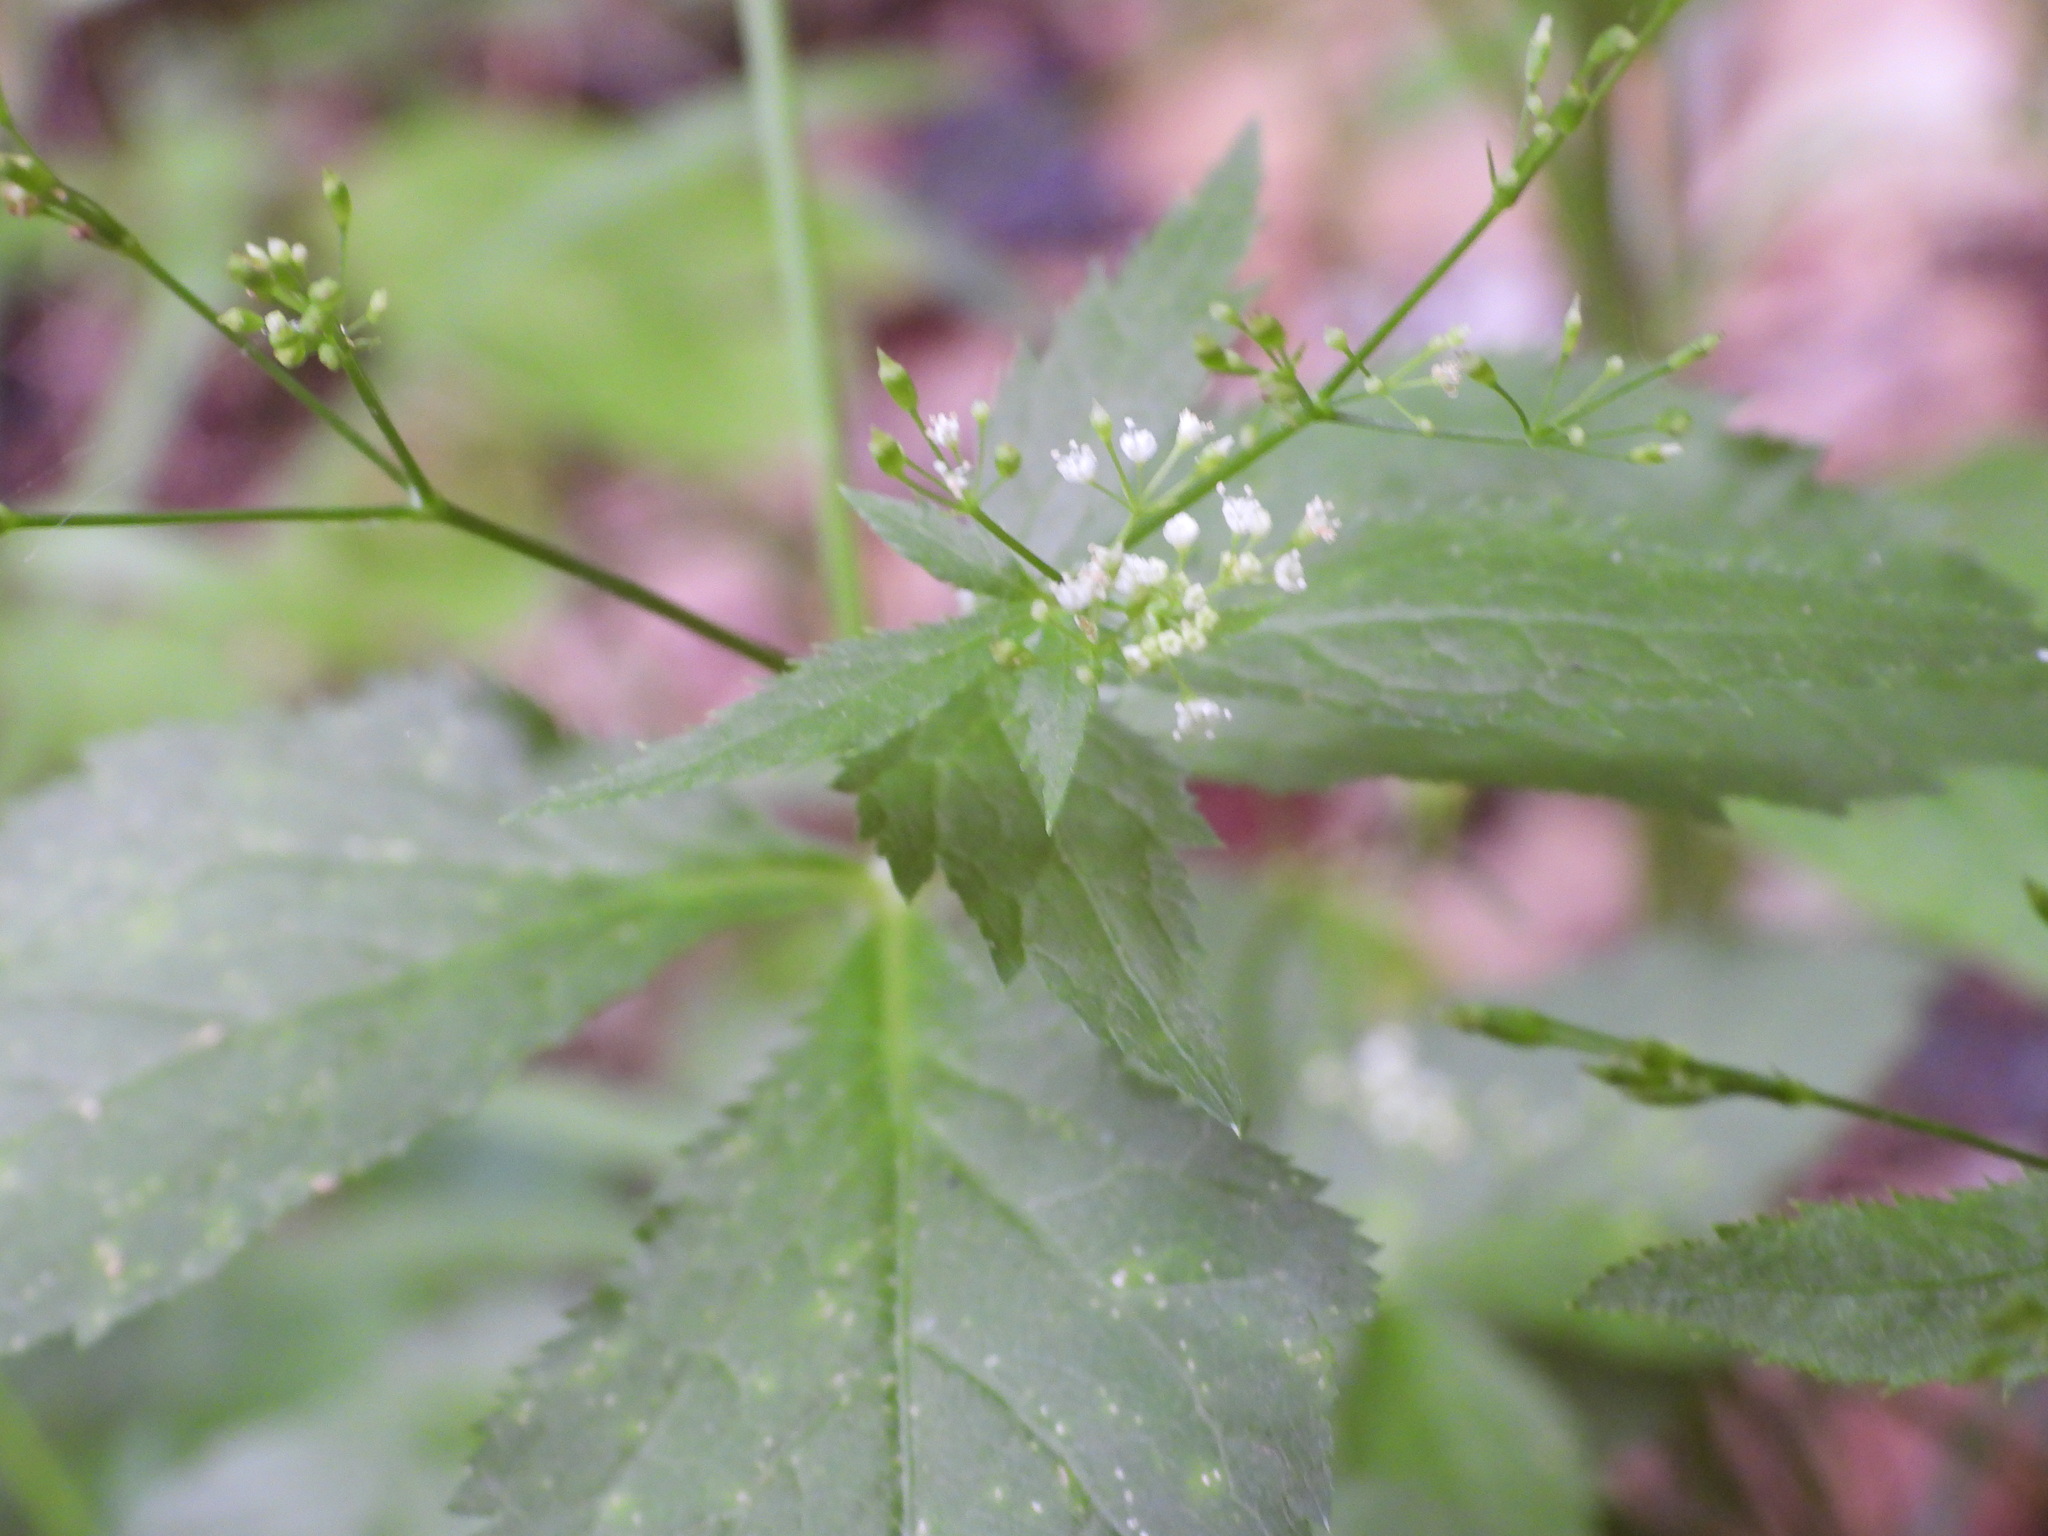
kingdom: Plantae
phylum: Tracheophyta
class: Magnoliopsida
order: Apiales
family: Apiaceae
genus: Cryptotaenia
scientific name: Cryptotaenia canadensis
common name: Honewort
